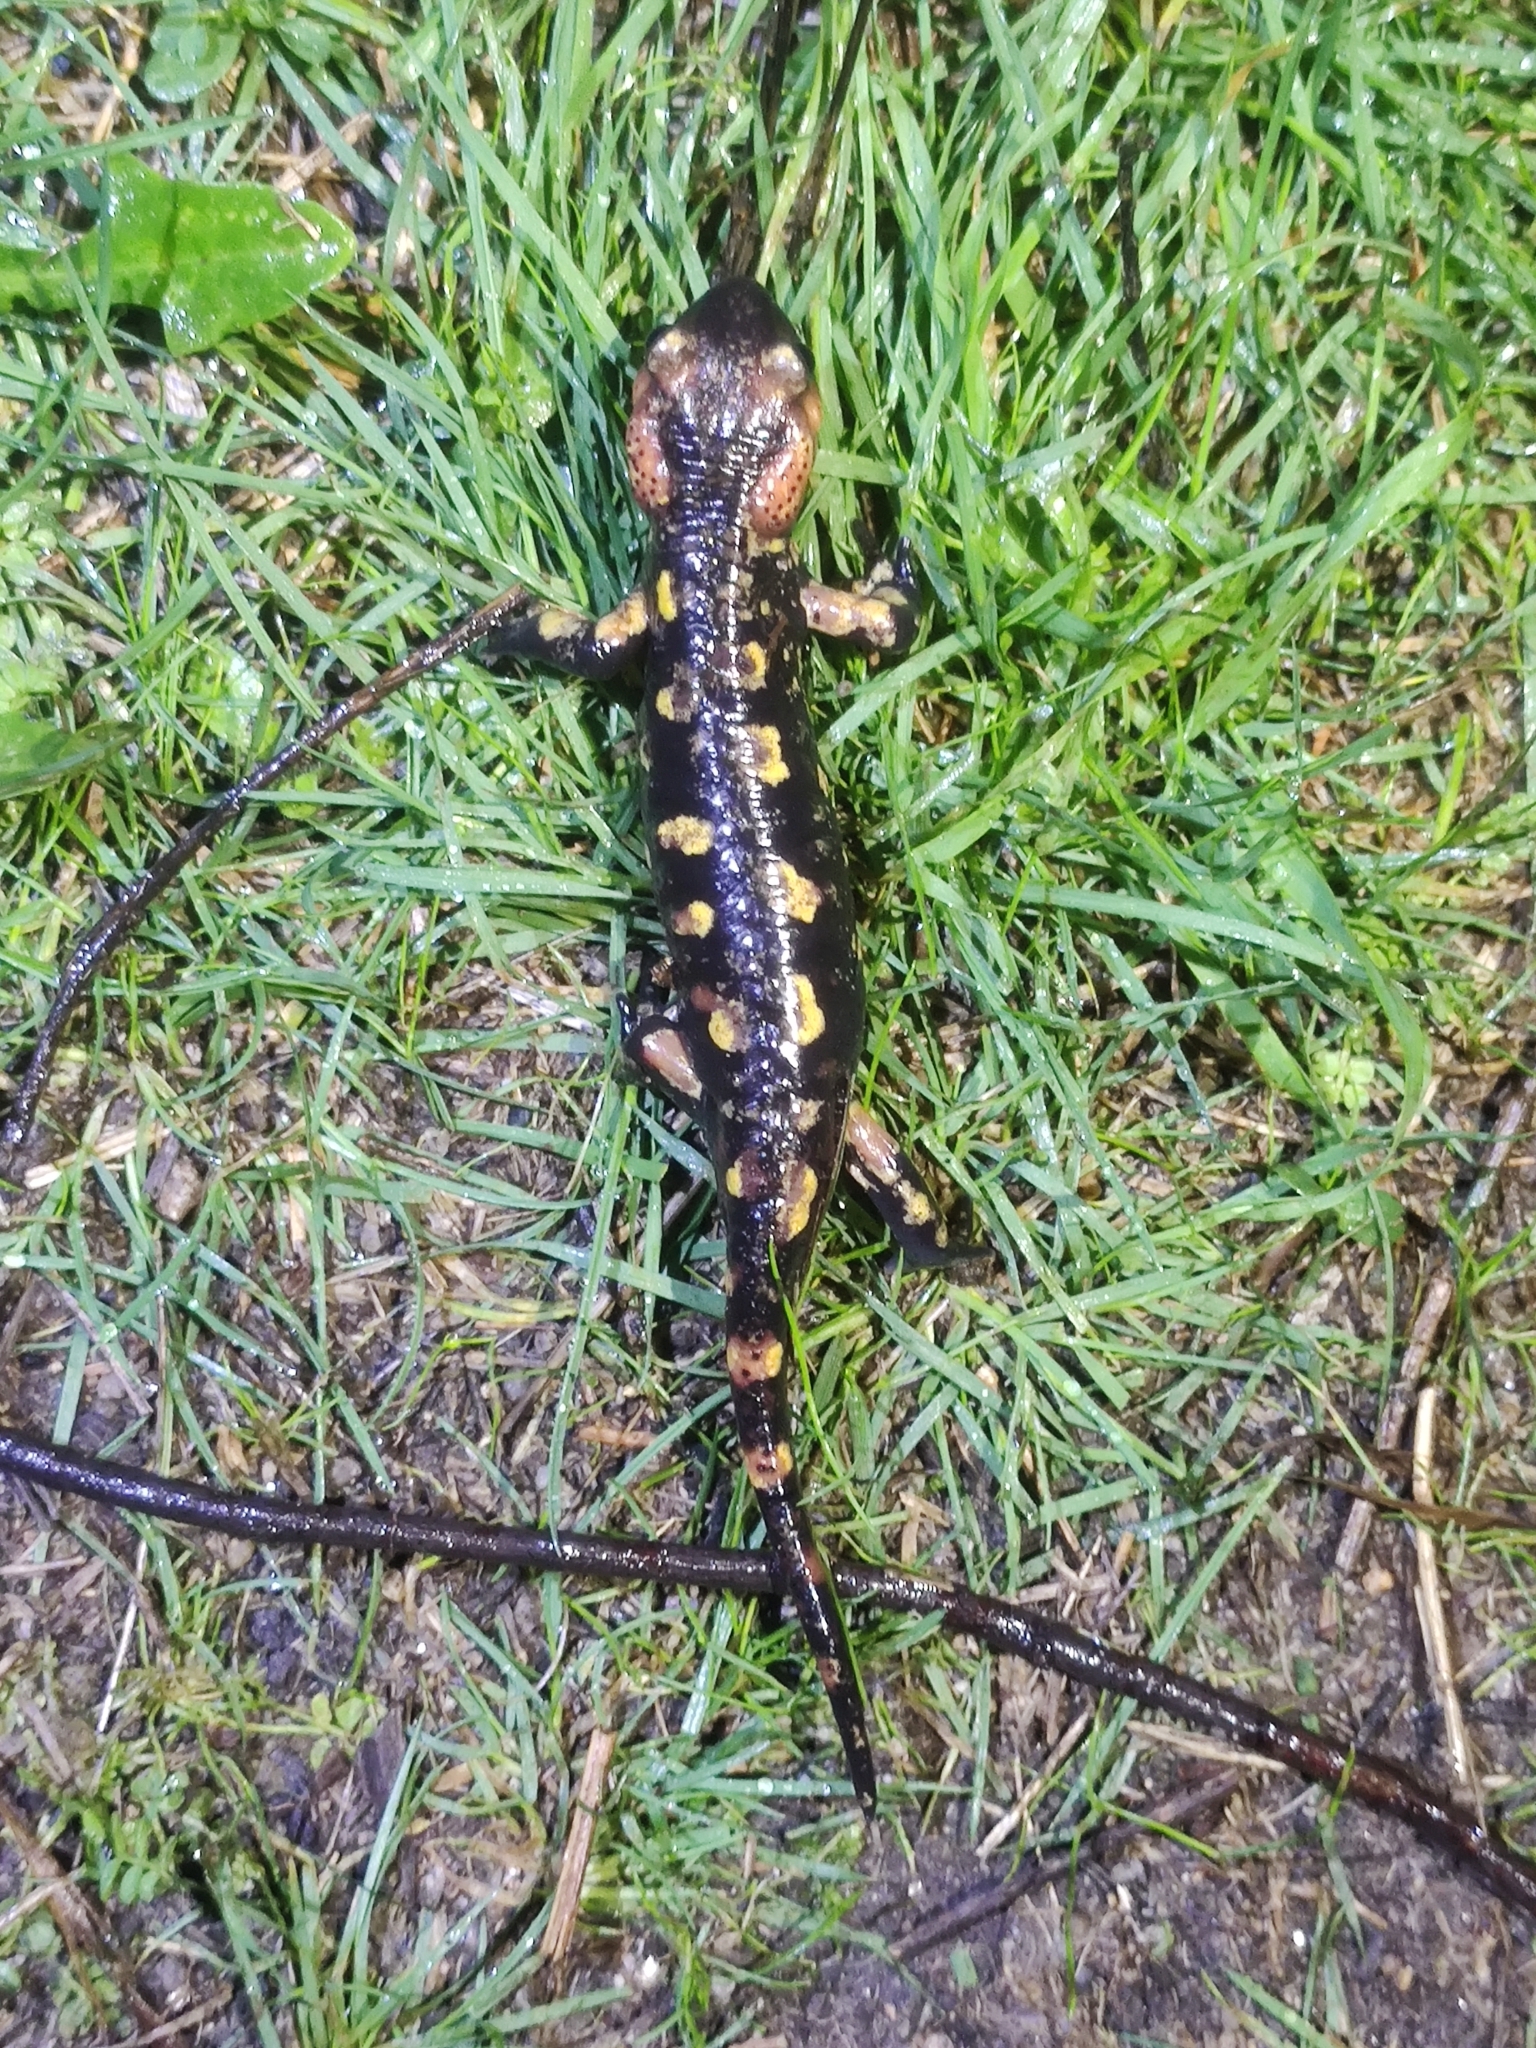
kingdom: Animalia
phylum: Chordata
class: Amphibia
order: Caudata
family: Salamandridae
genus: Salamandra
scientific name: Salamandra salamandra
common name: Fire salamander
